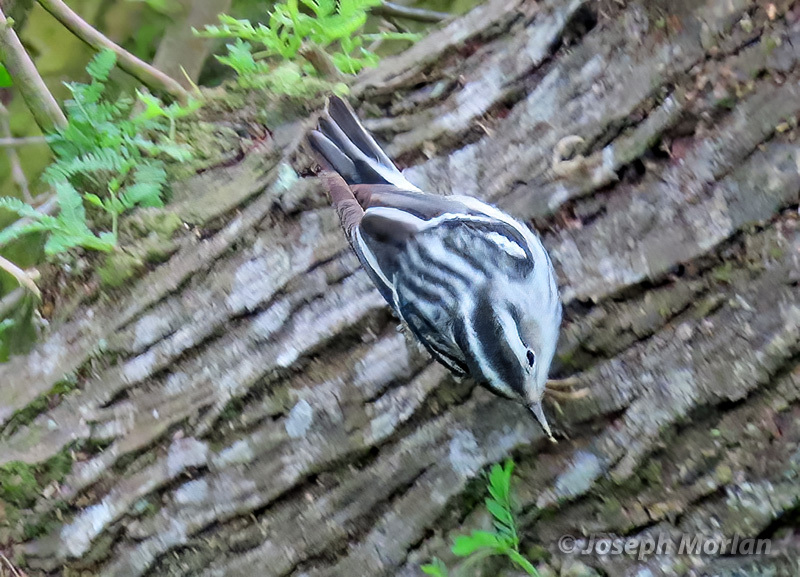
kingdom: Animalia
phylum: Chordata
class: Aves
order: Passeriformes
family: Parulidae
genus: Mniotilta
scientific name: Mniotilta varia
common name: Black-and-white warbler
